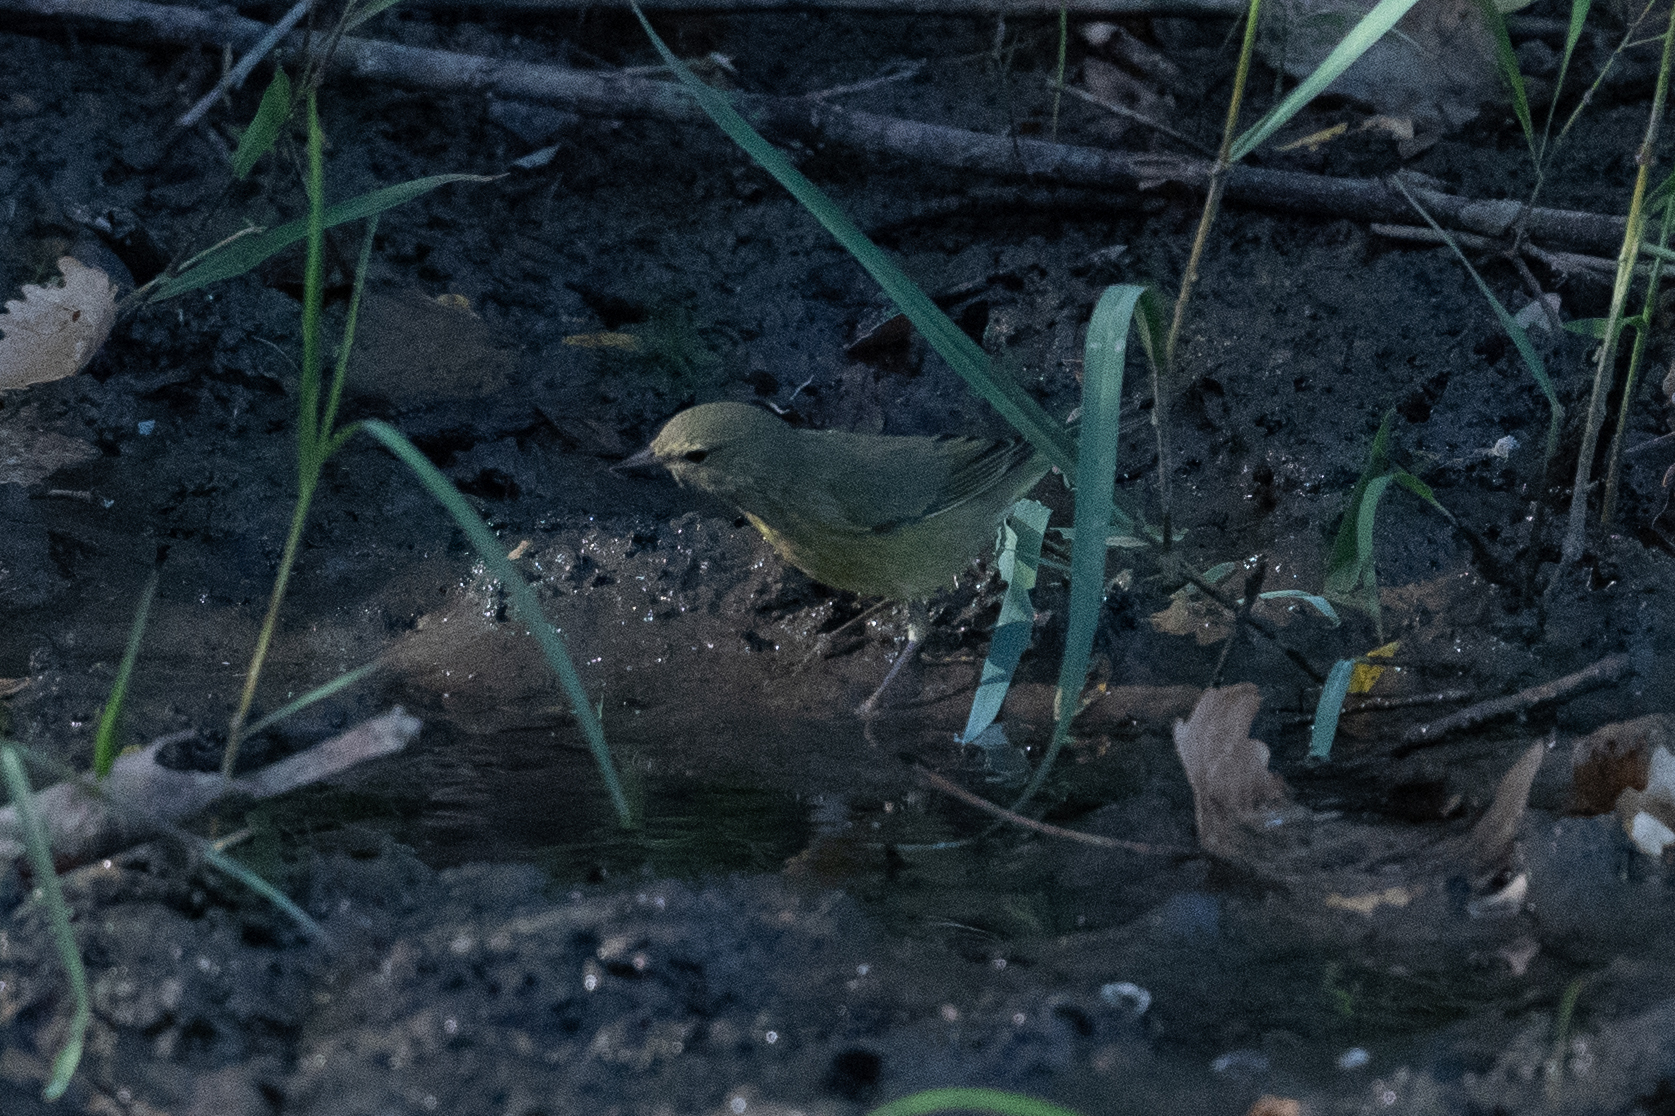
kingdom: Animalia
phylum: Chordata
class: Aves
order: Passeriformes
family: Parulidae
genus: Leiothlypis
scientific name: Leiothlypis celata
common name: Orange-crowned warbler
